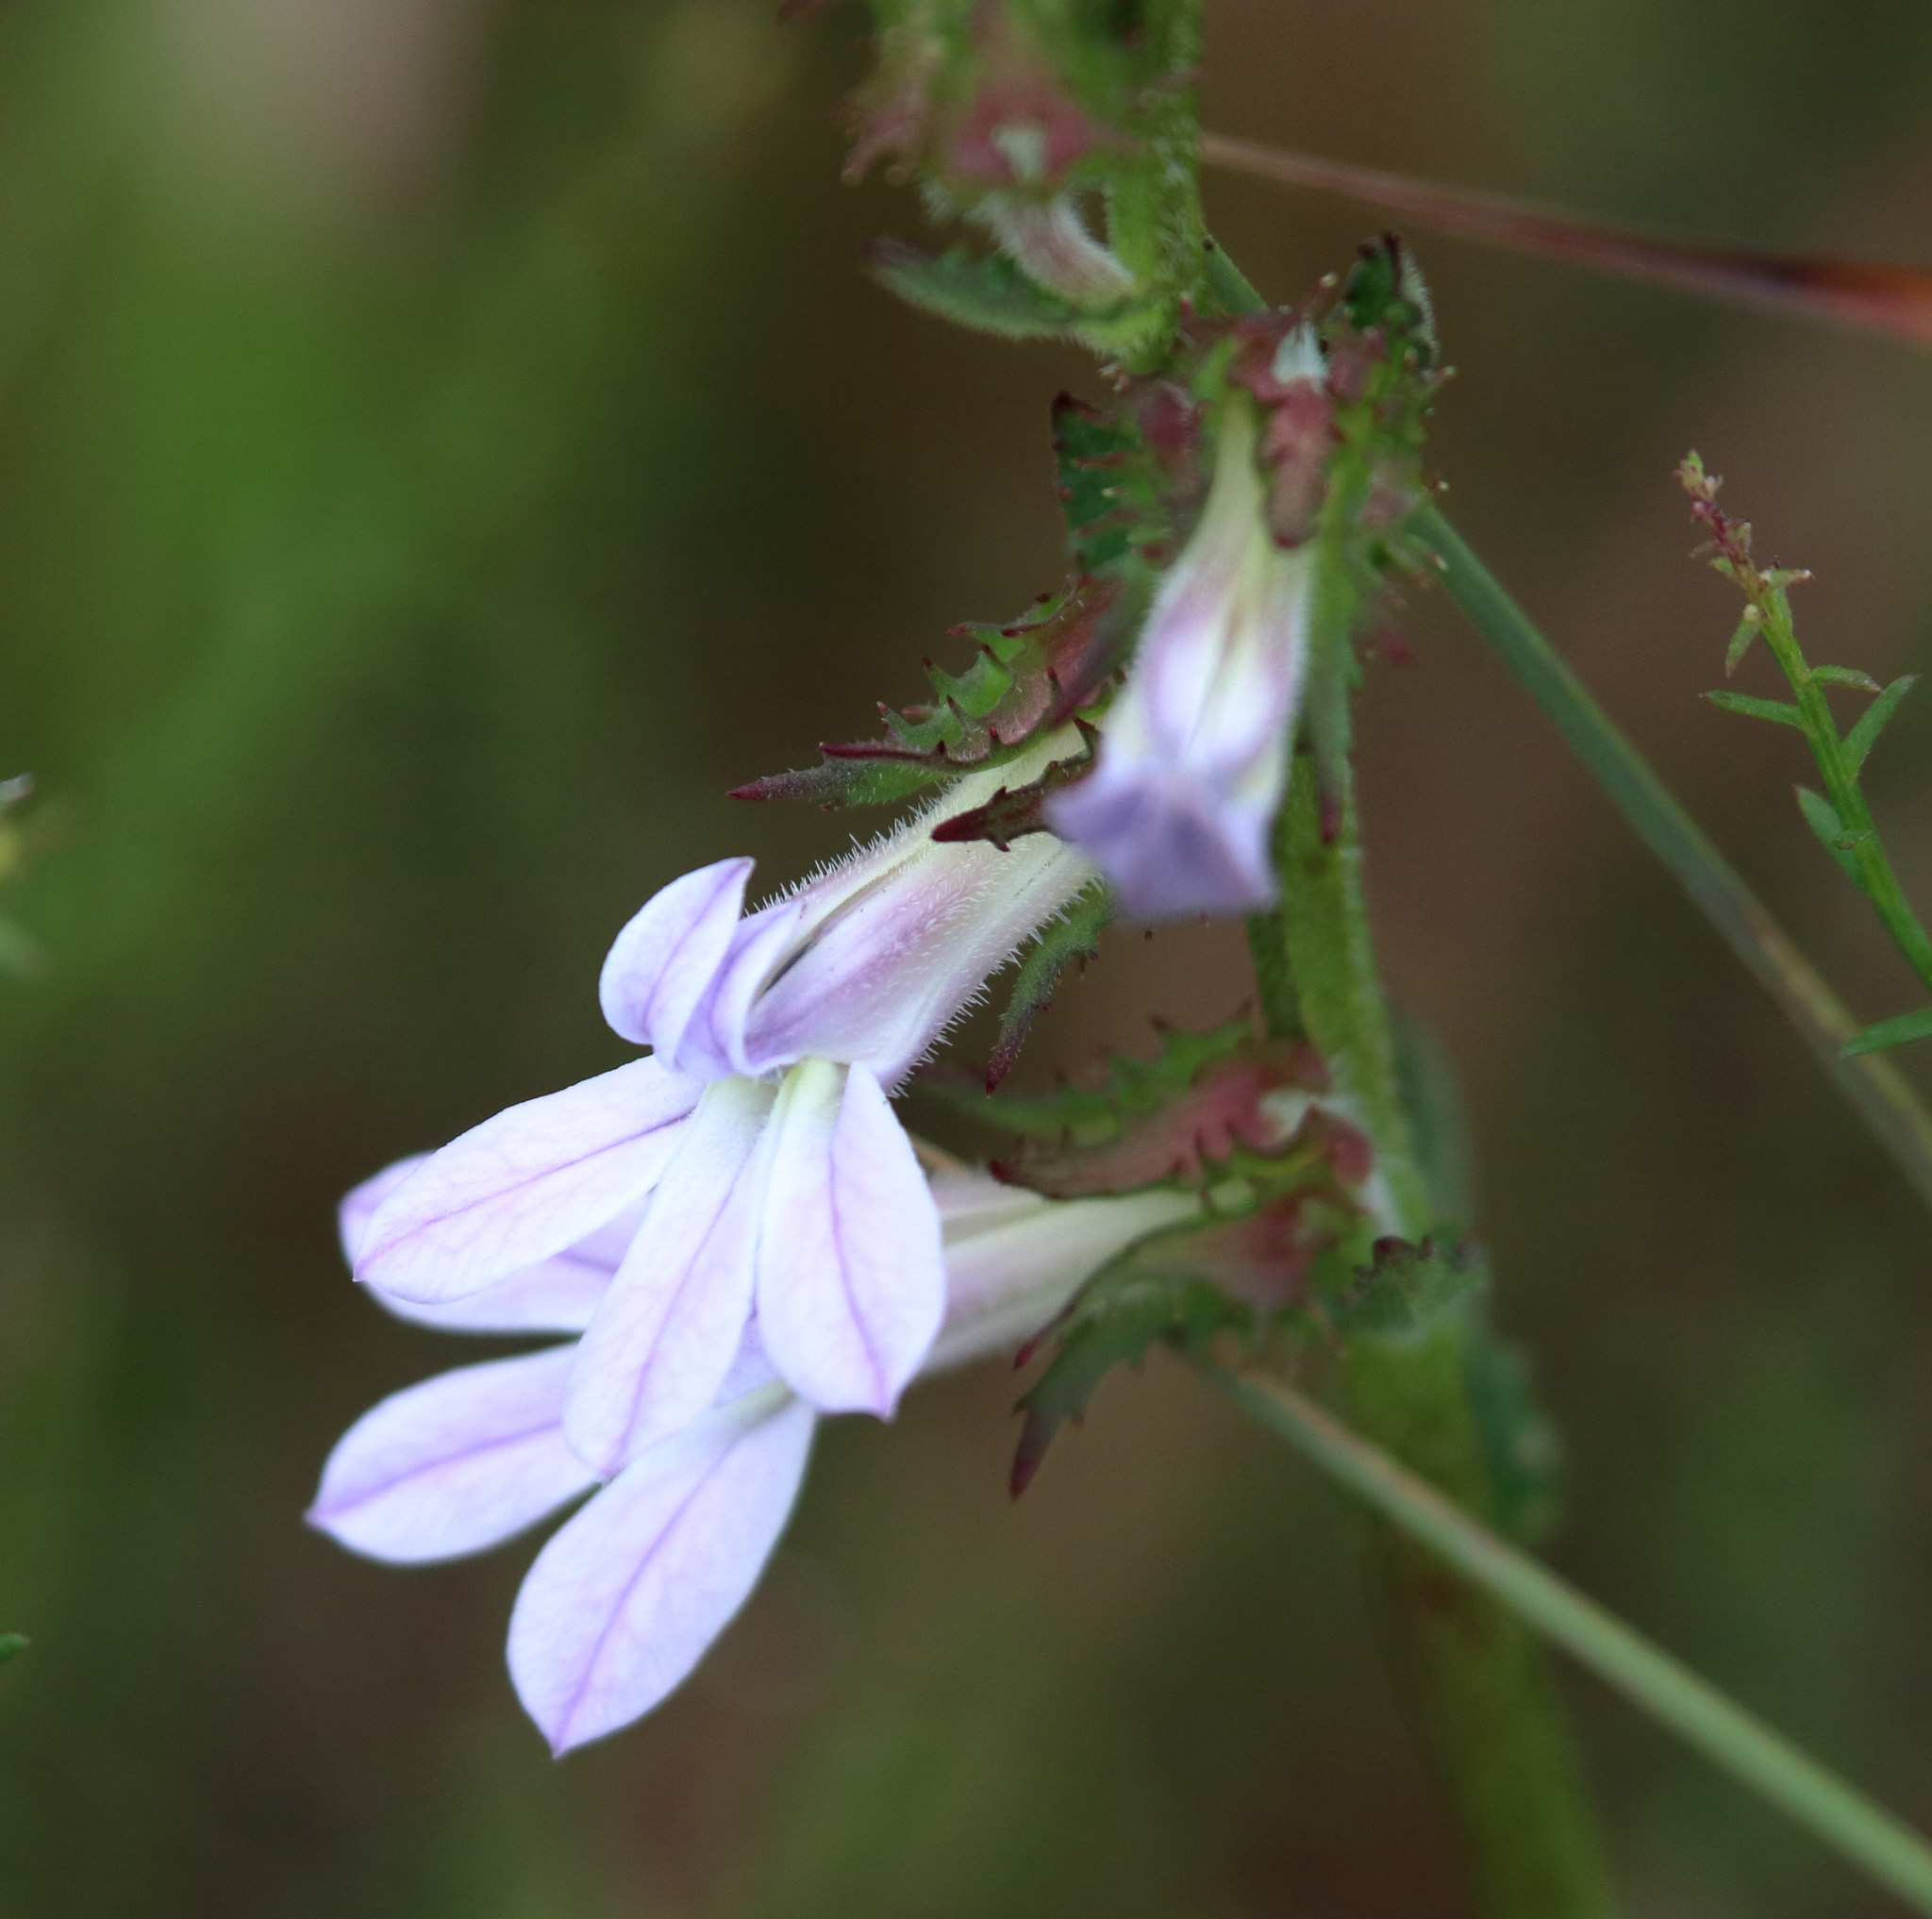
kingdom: Plantae
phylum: Tracheophyta
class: Magnoliopsida
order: Asterales
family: Campanulaceae
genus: Lobelia
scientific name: Lobelia brevifolia
